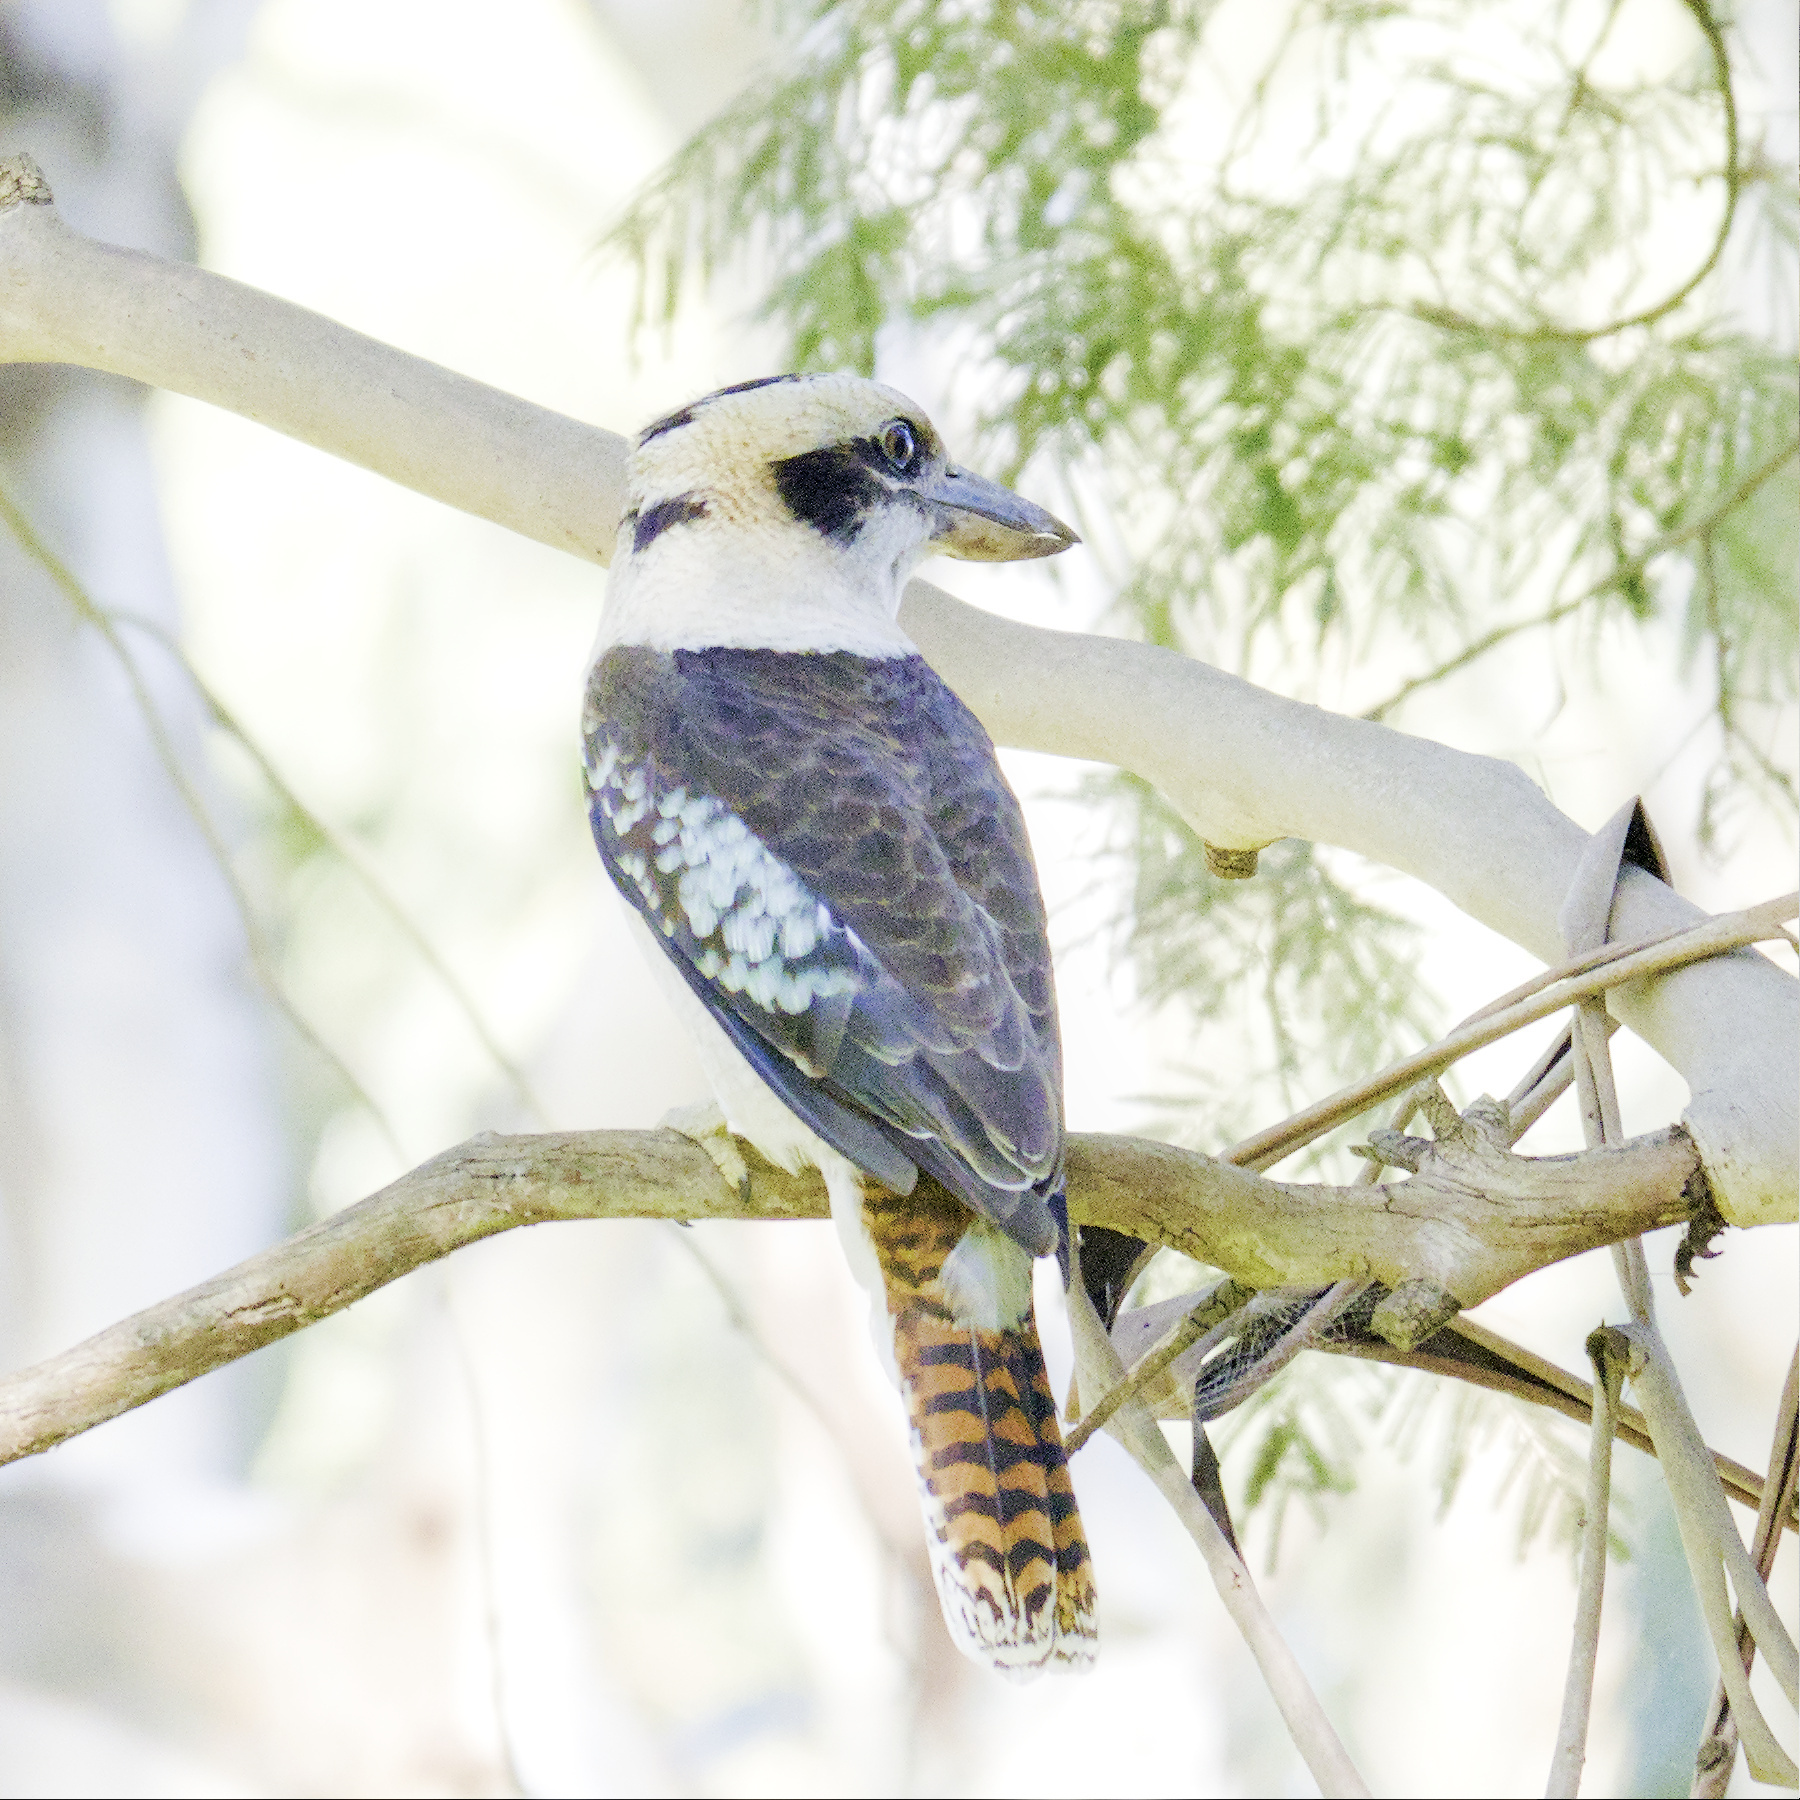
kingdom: Animalia
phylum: Chordata
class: Aves
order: Coraciiformes
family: Alcedinidae
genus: Dacelo
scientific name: Dacelo novaeguineae
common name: Laughing kookaburra
